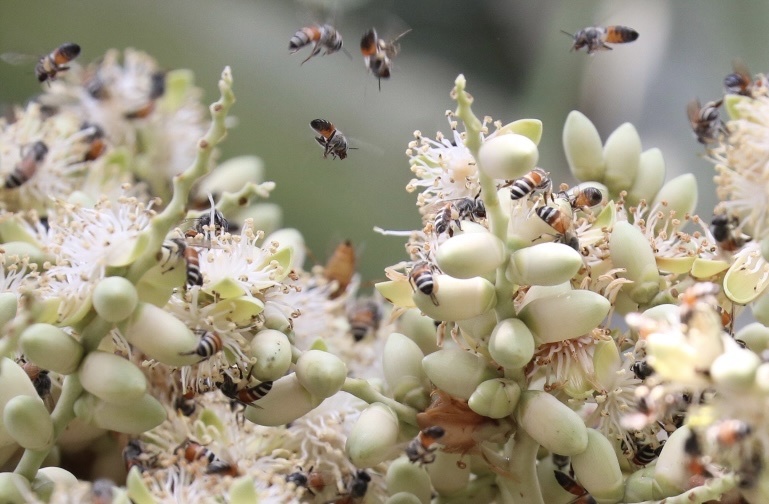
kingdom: Animalia
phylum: Arthropoda
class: Insecta
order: Hymenoptera
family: Apidae
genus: Apis
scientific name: Apis florea
